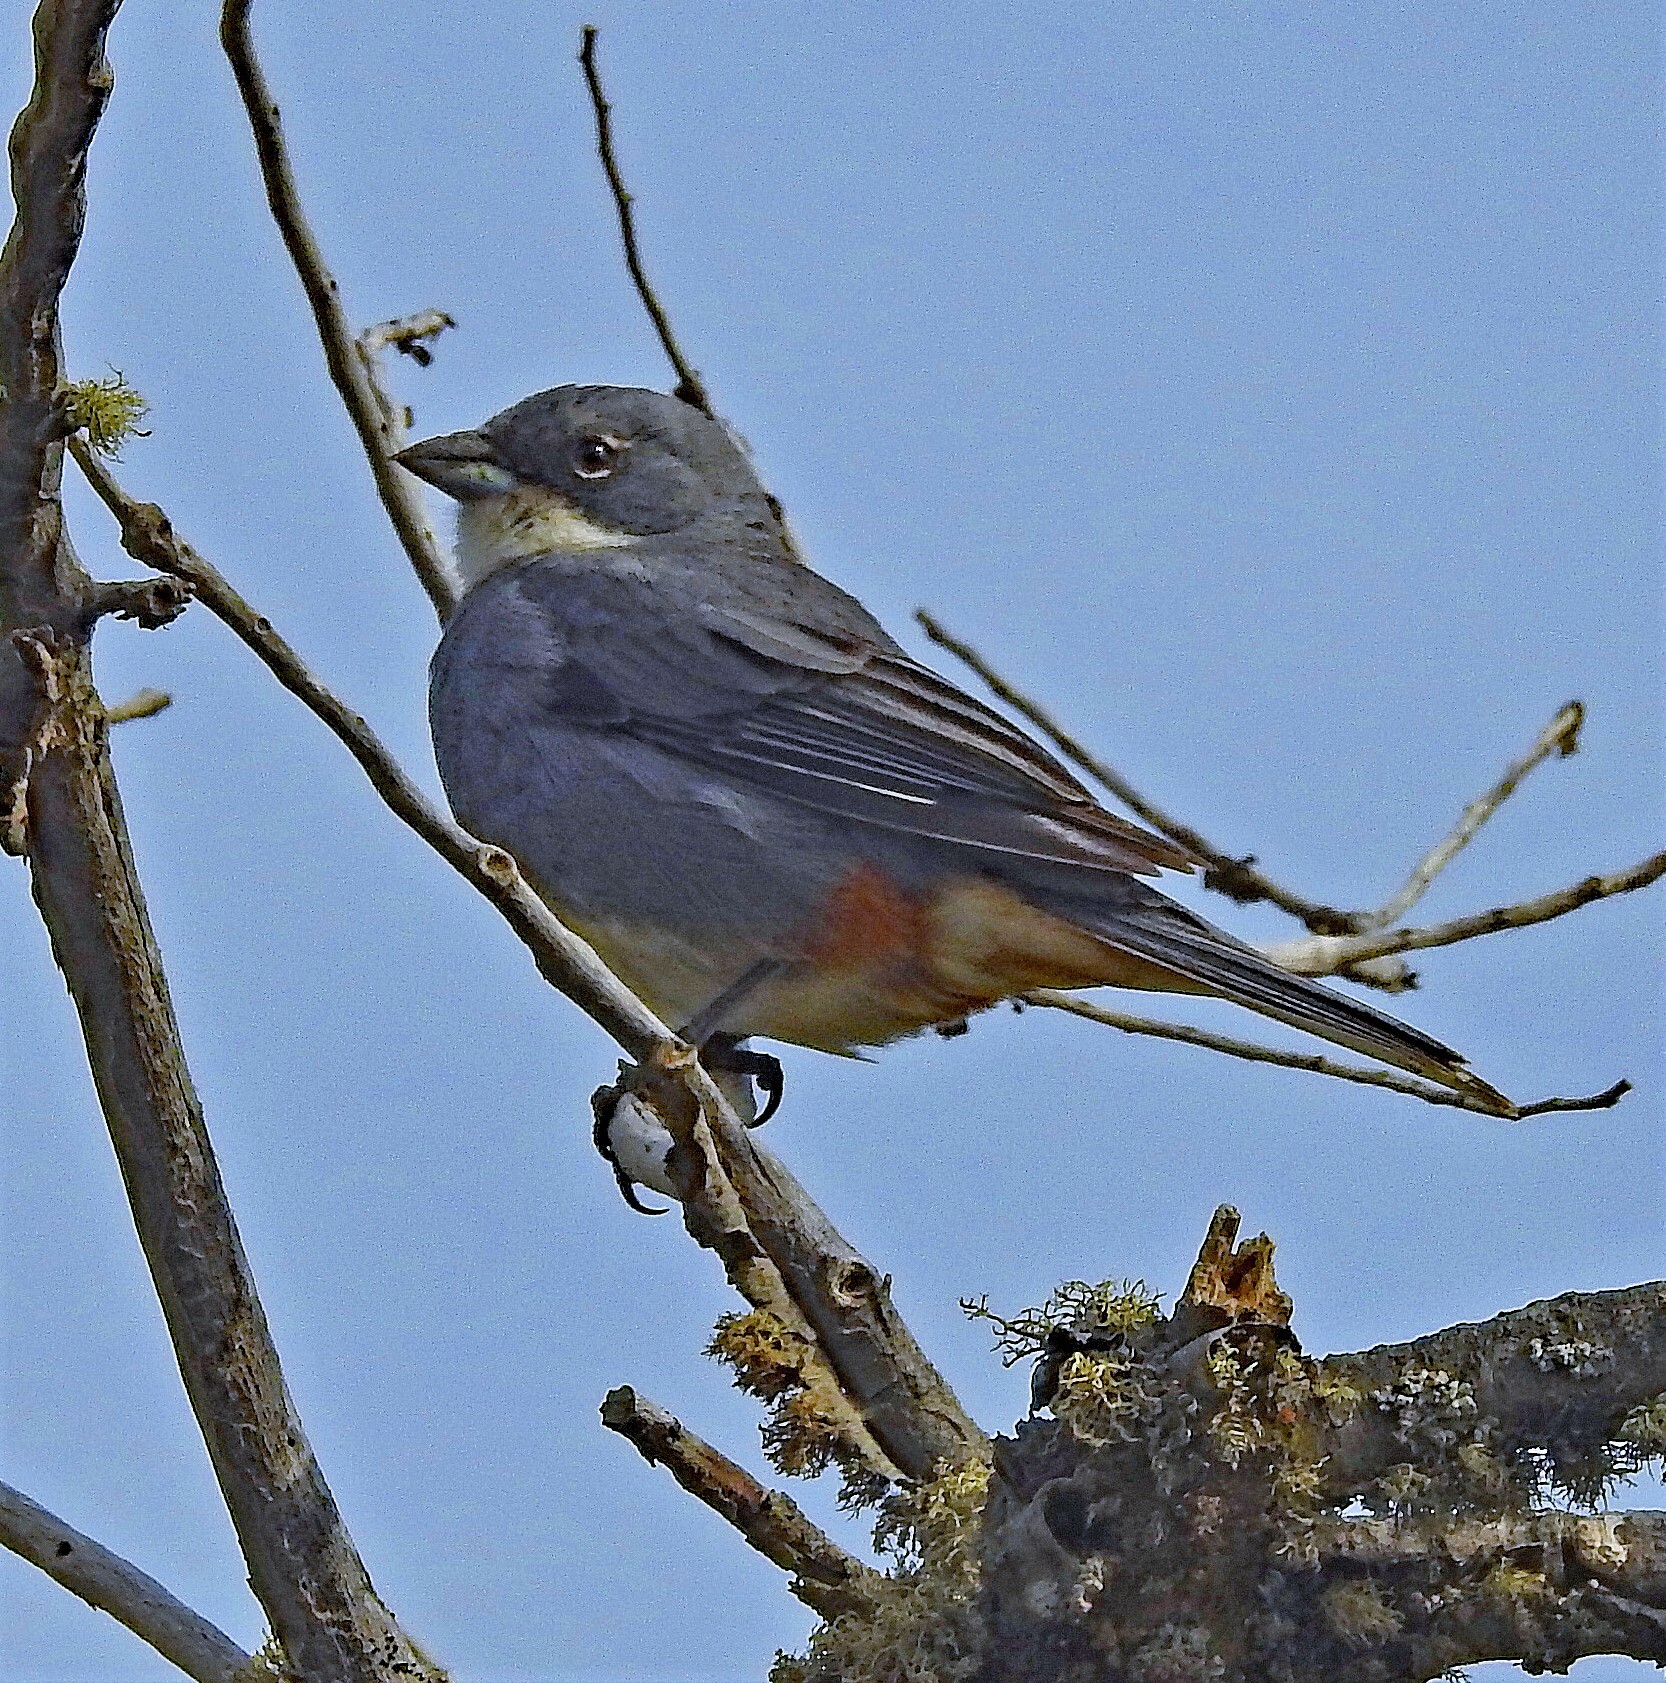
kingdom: Animalia
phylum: Chordata
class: Aves
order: Passeriformes
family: Thraupidae
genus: Diuca
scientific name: Diuca diuca
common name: Common diuca finch
